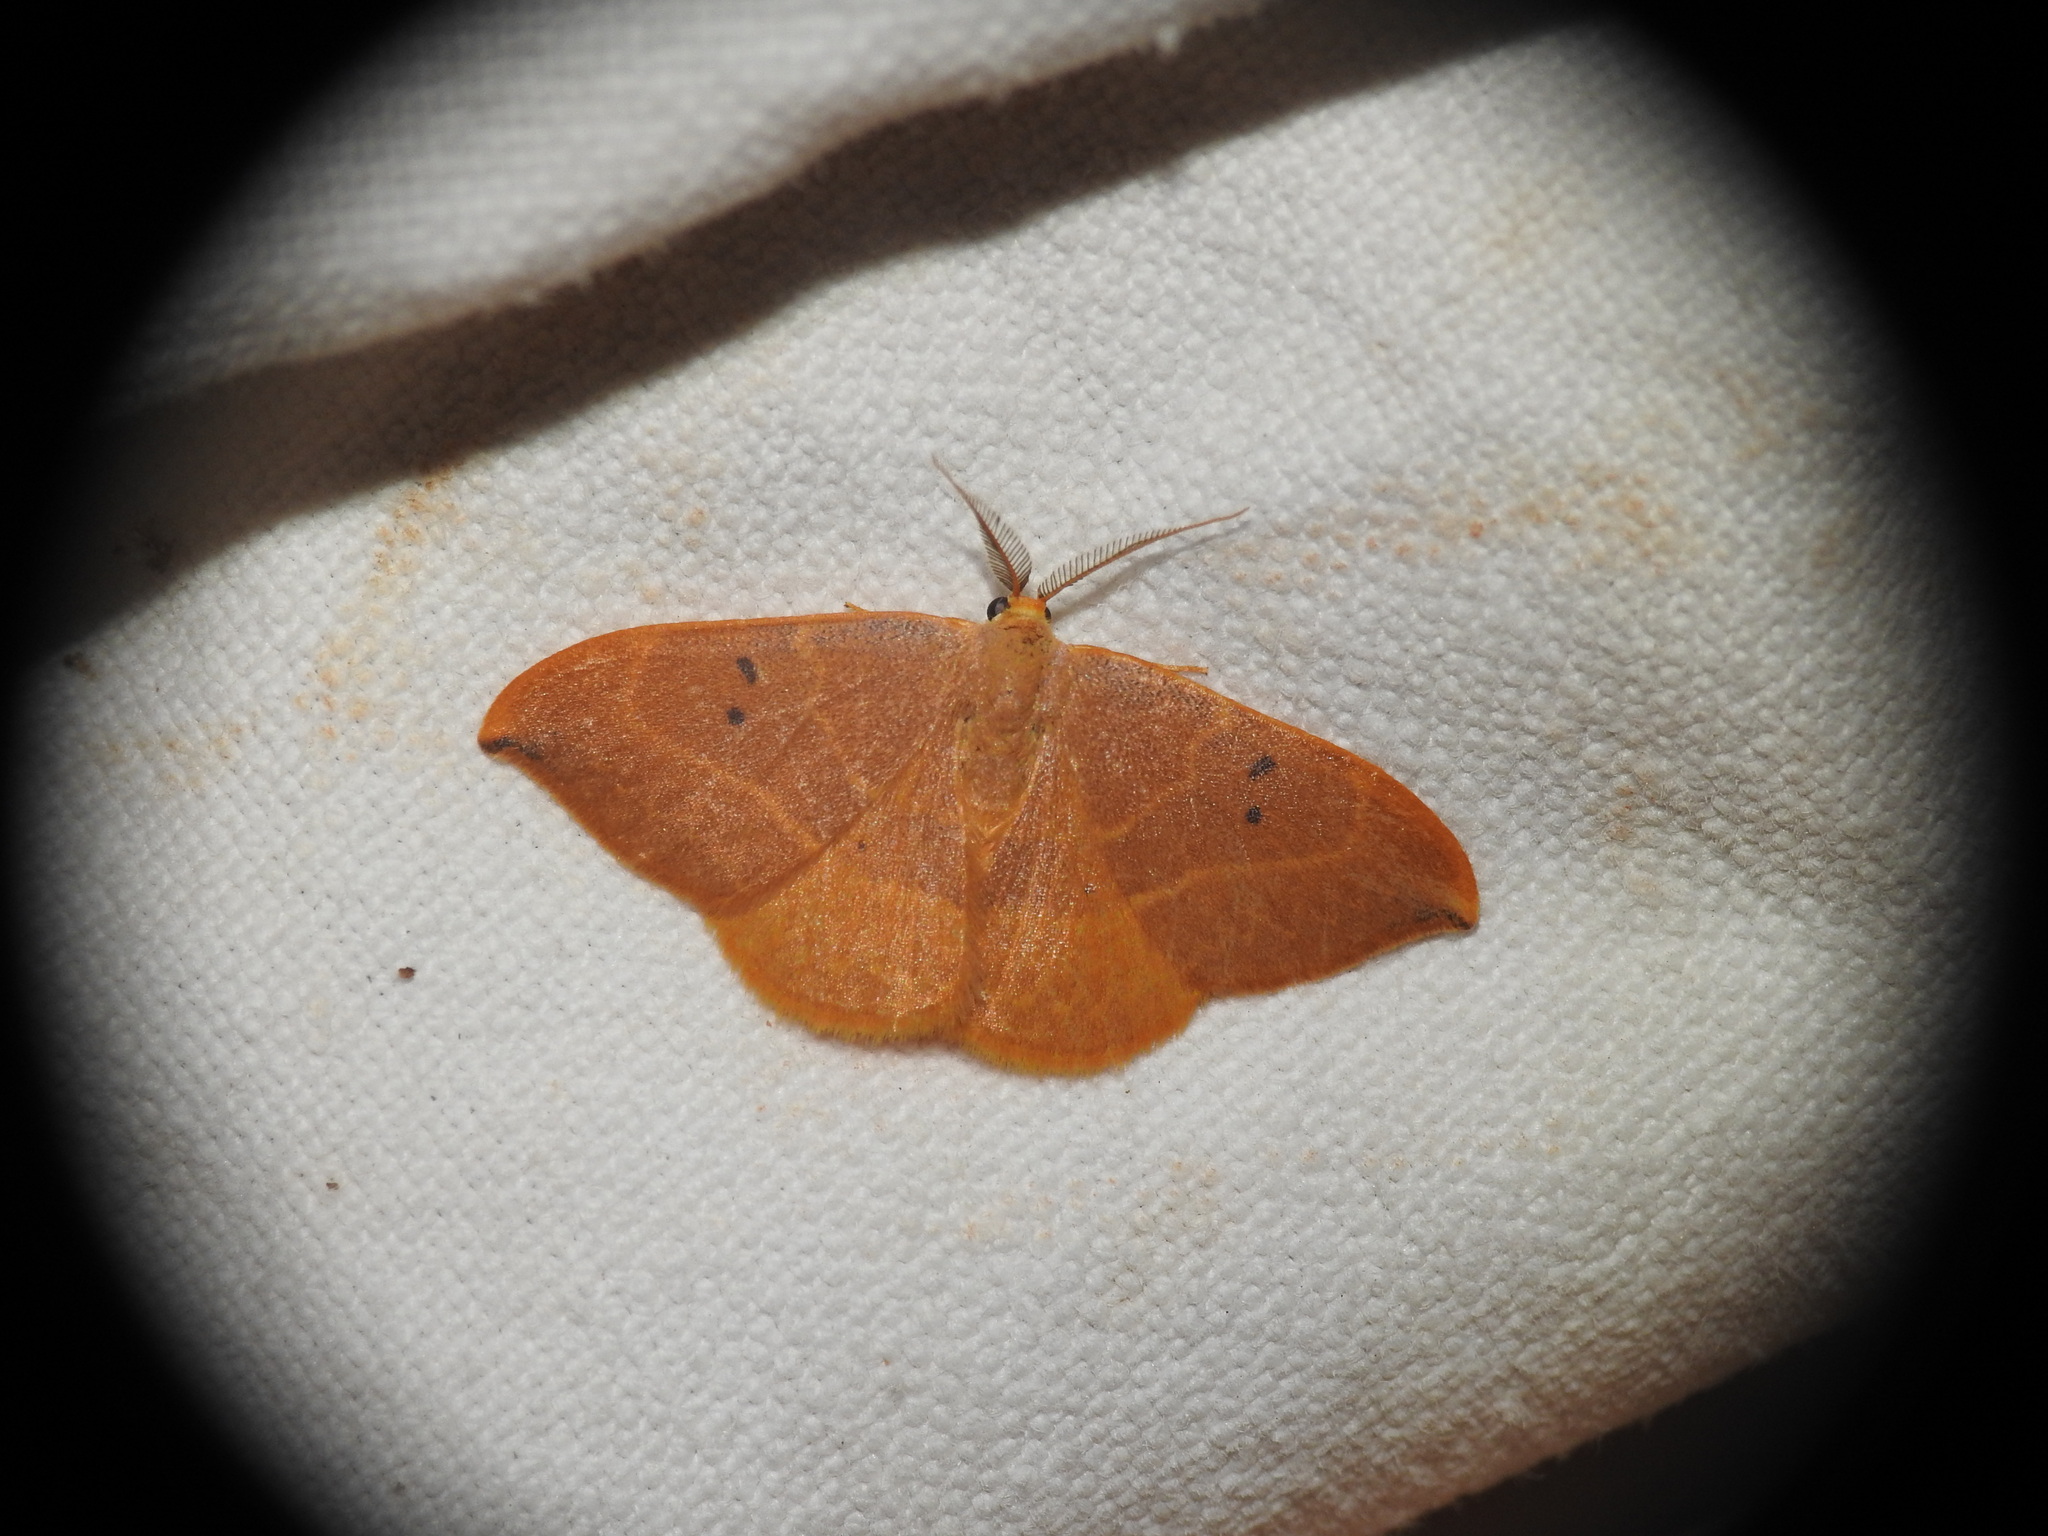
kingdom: Animalia
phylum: Arthropoda
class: Insecta
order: Lepidoptera
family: Drepanidae
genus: Watsonalla
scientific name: Watsonalla uncinula
